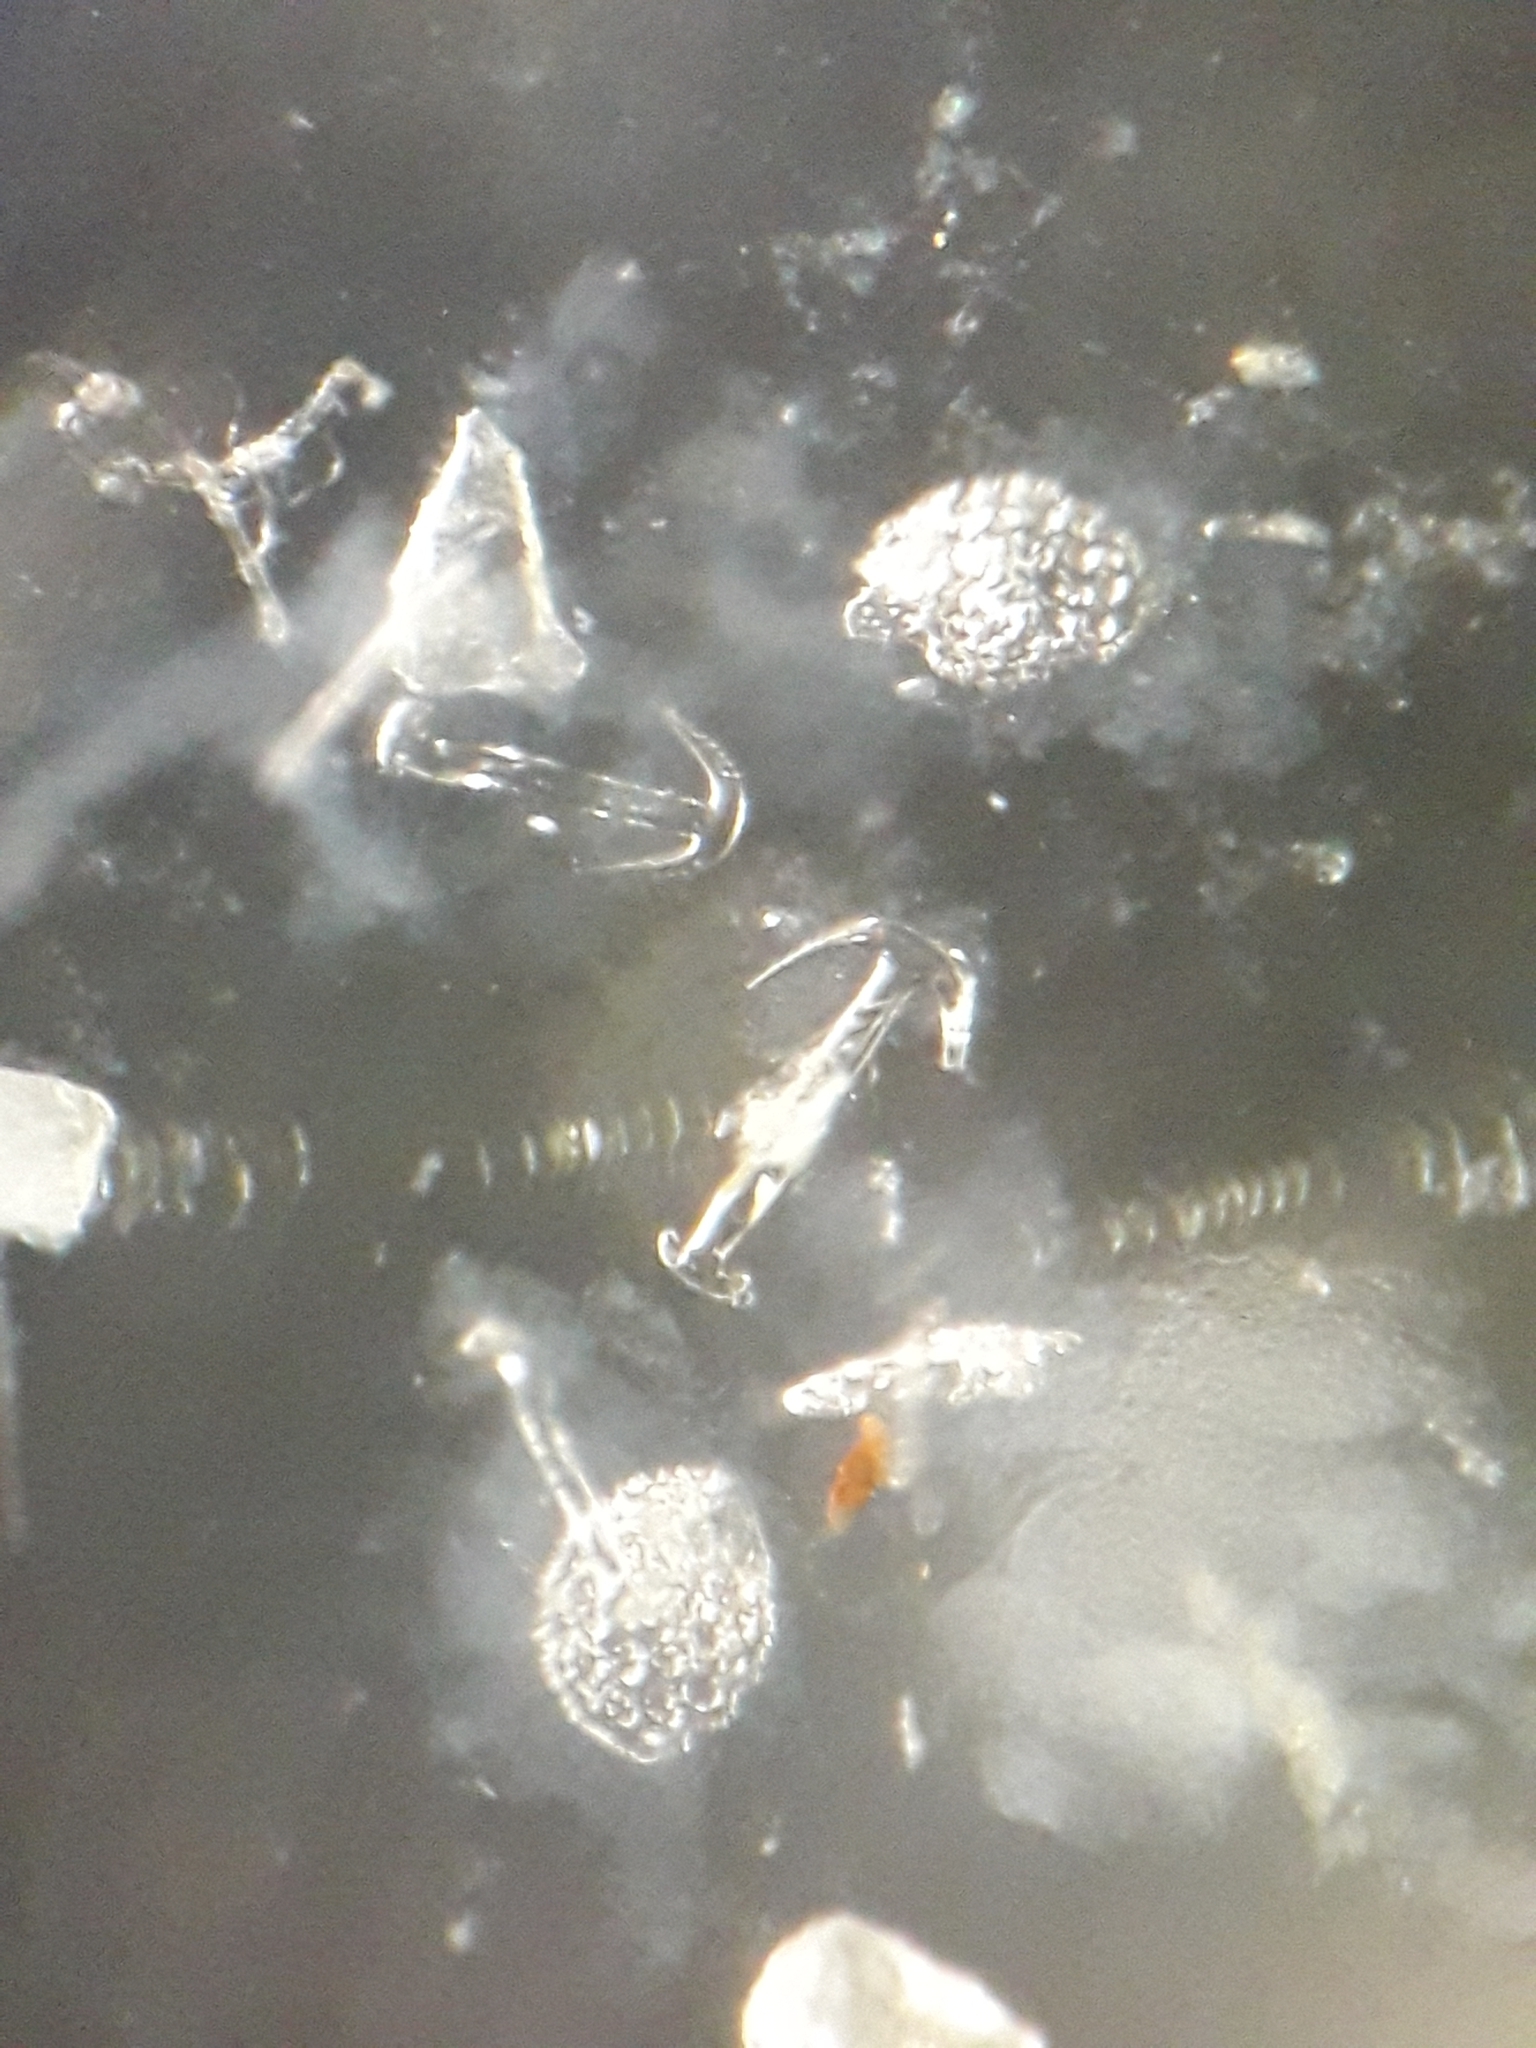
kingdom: Animalia
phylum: Echinodermata
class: Holothuroidea
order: Apodida
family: Synaptidae
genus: Leptosynapta
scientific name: Leptosynapta inhaerens
